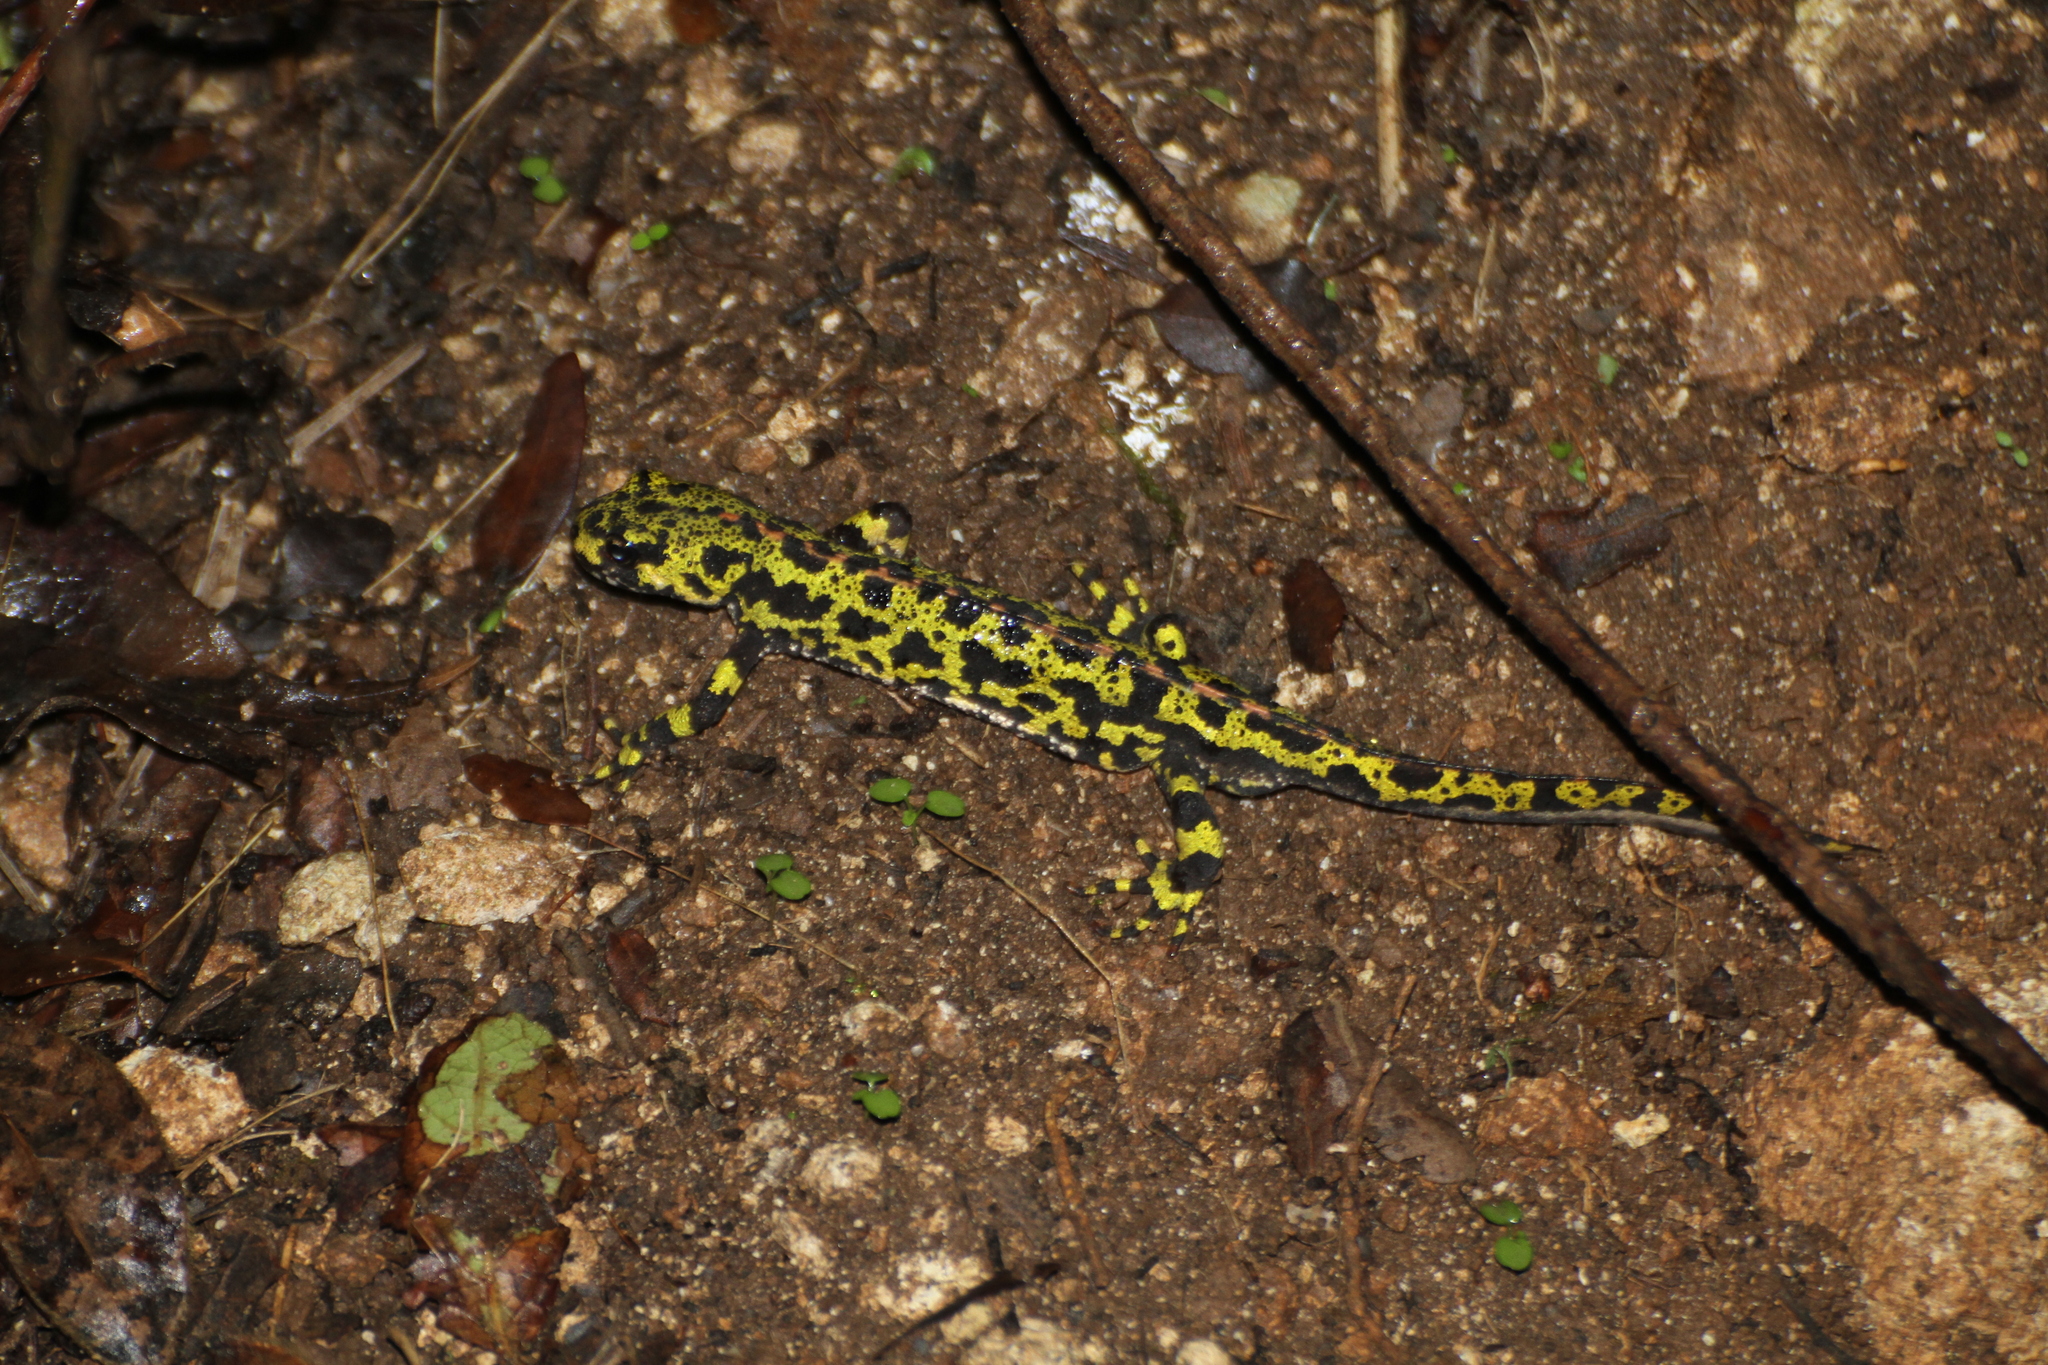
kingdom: Animalia
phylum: Chordata
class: Amphibia
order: Caudata
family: Salamandridae
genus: Triturus
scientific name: Triturus marmoratus
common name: Marbled newt
